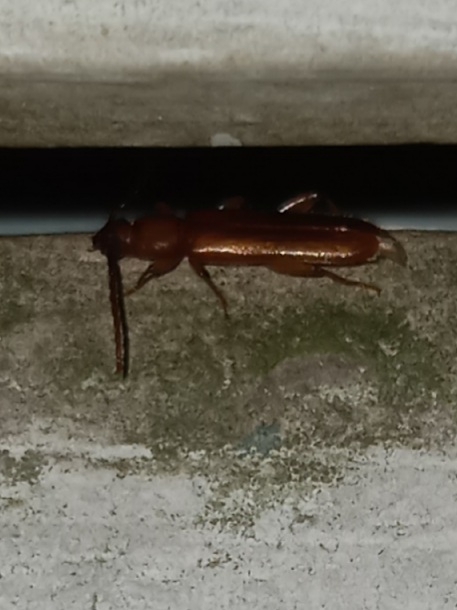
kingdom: Animalia
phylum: Arthropoda
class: Insecta
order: Coleoptera
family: Cerambycidae
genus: Smodicum
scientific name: Smodicum cucujiforme
